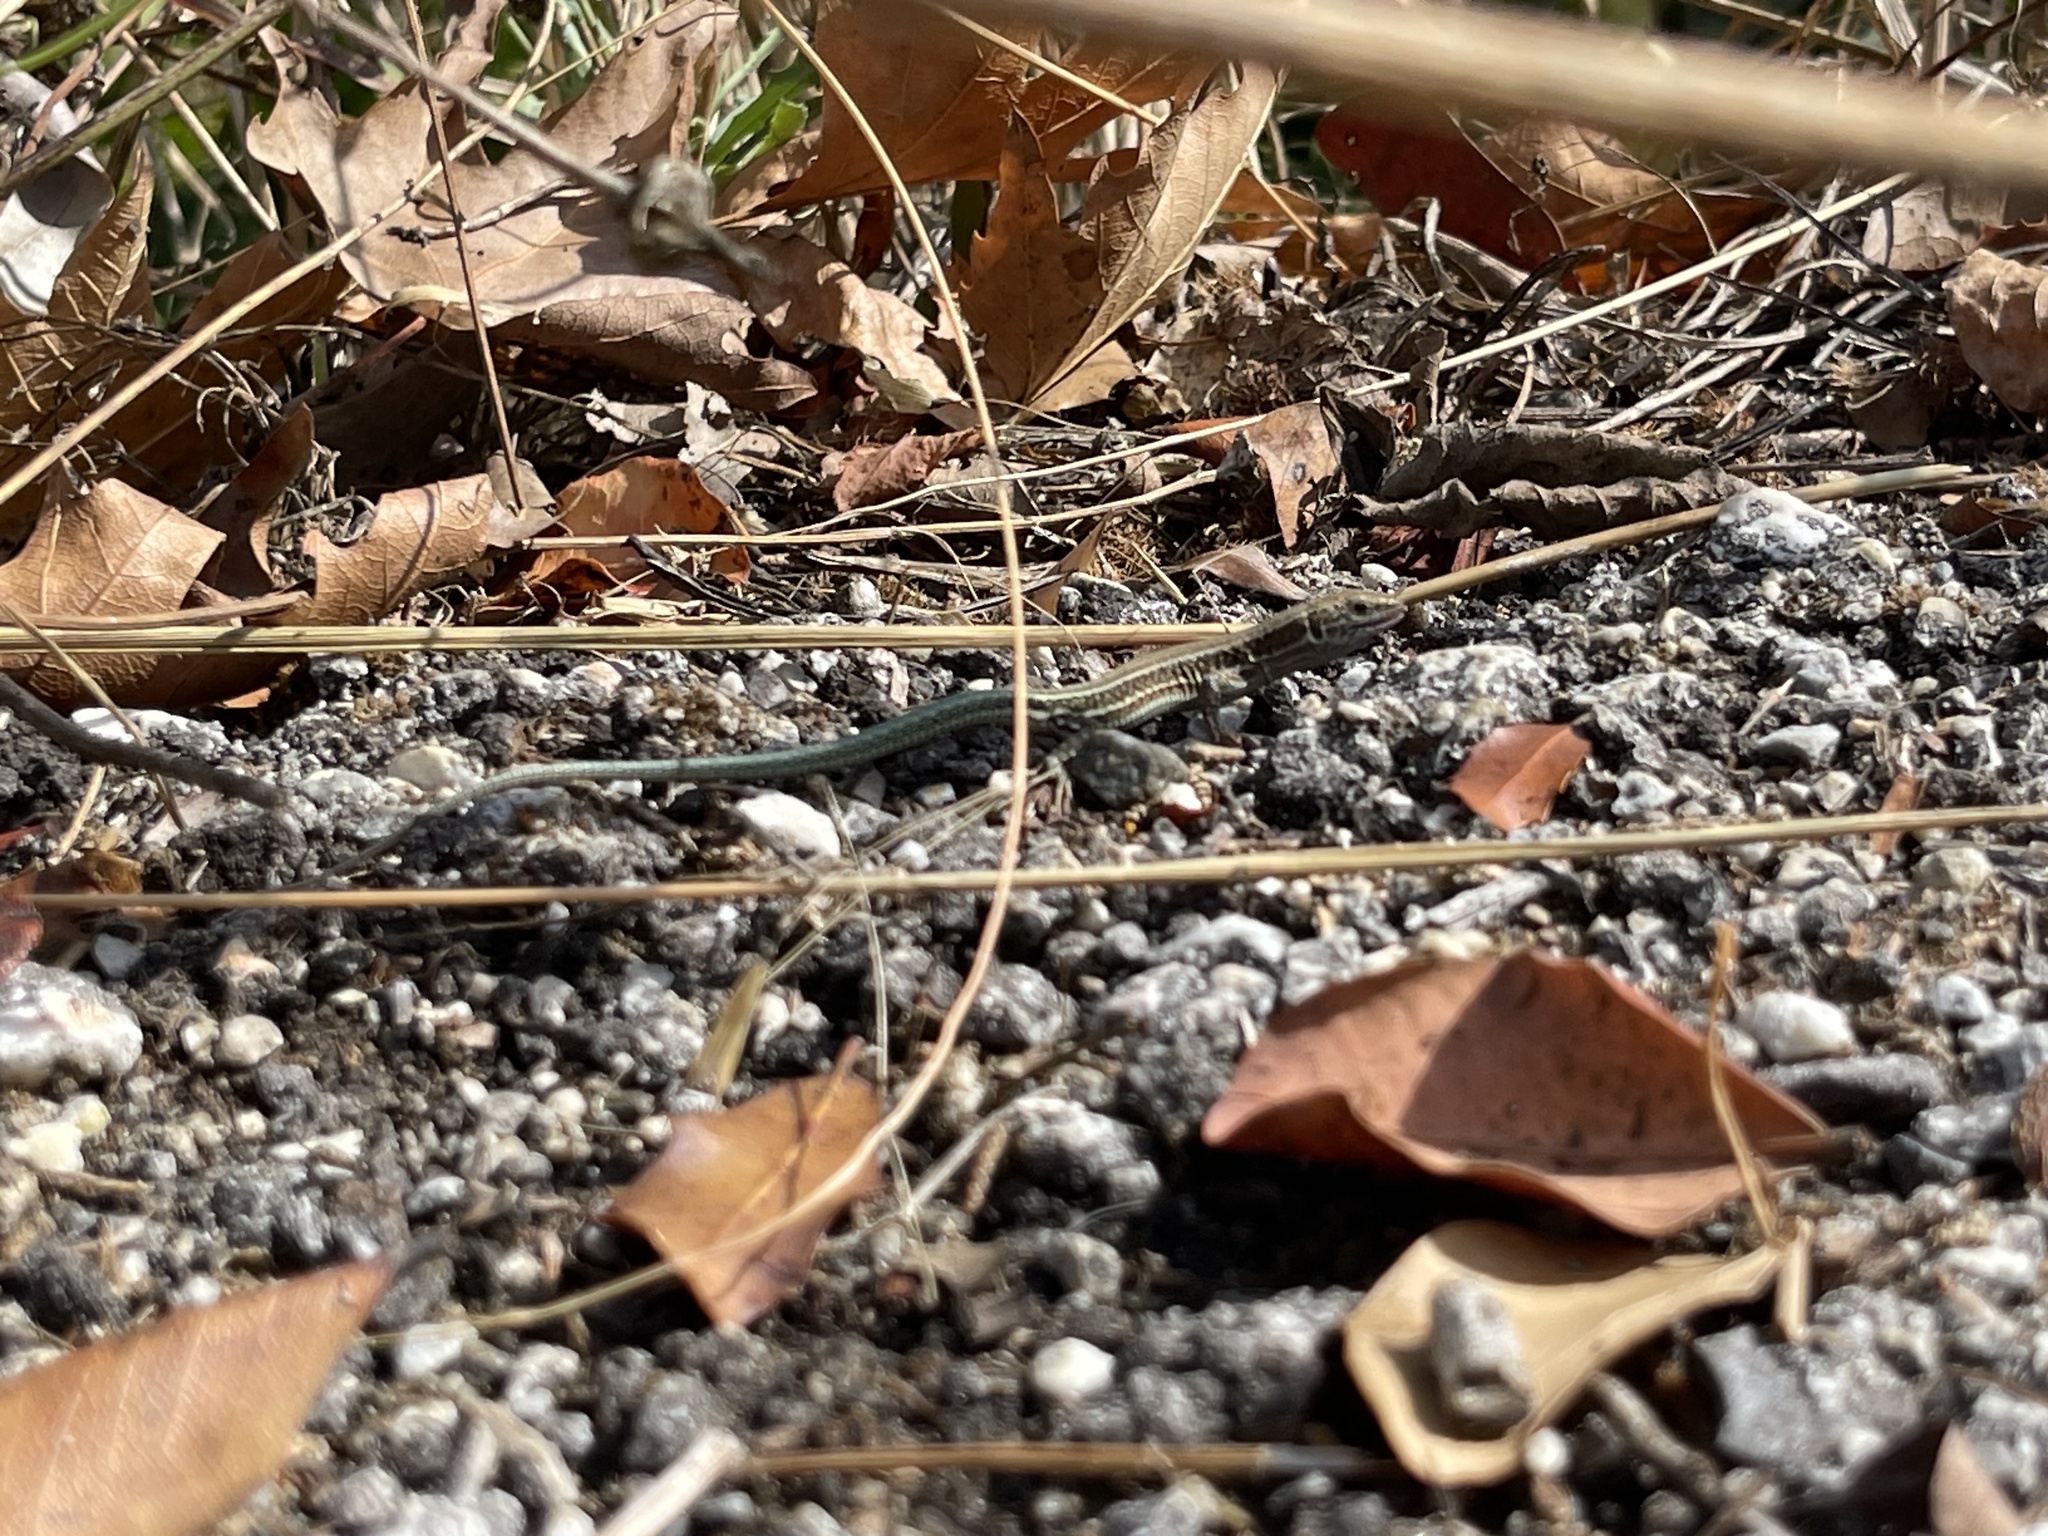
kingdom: Animalia
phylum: Chordata
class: Squamata
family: Lacertidae
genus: Podarcis
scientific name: Podarcis cretensis
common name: Cretan wall lizard
